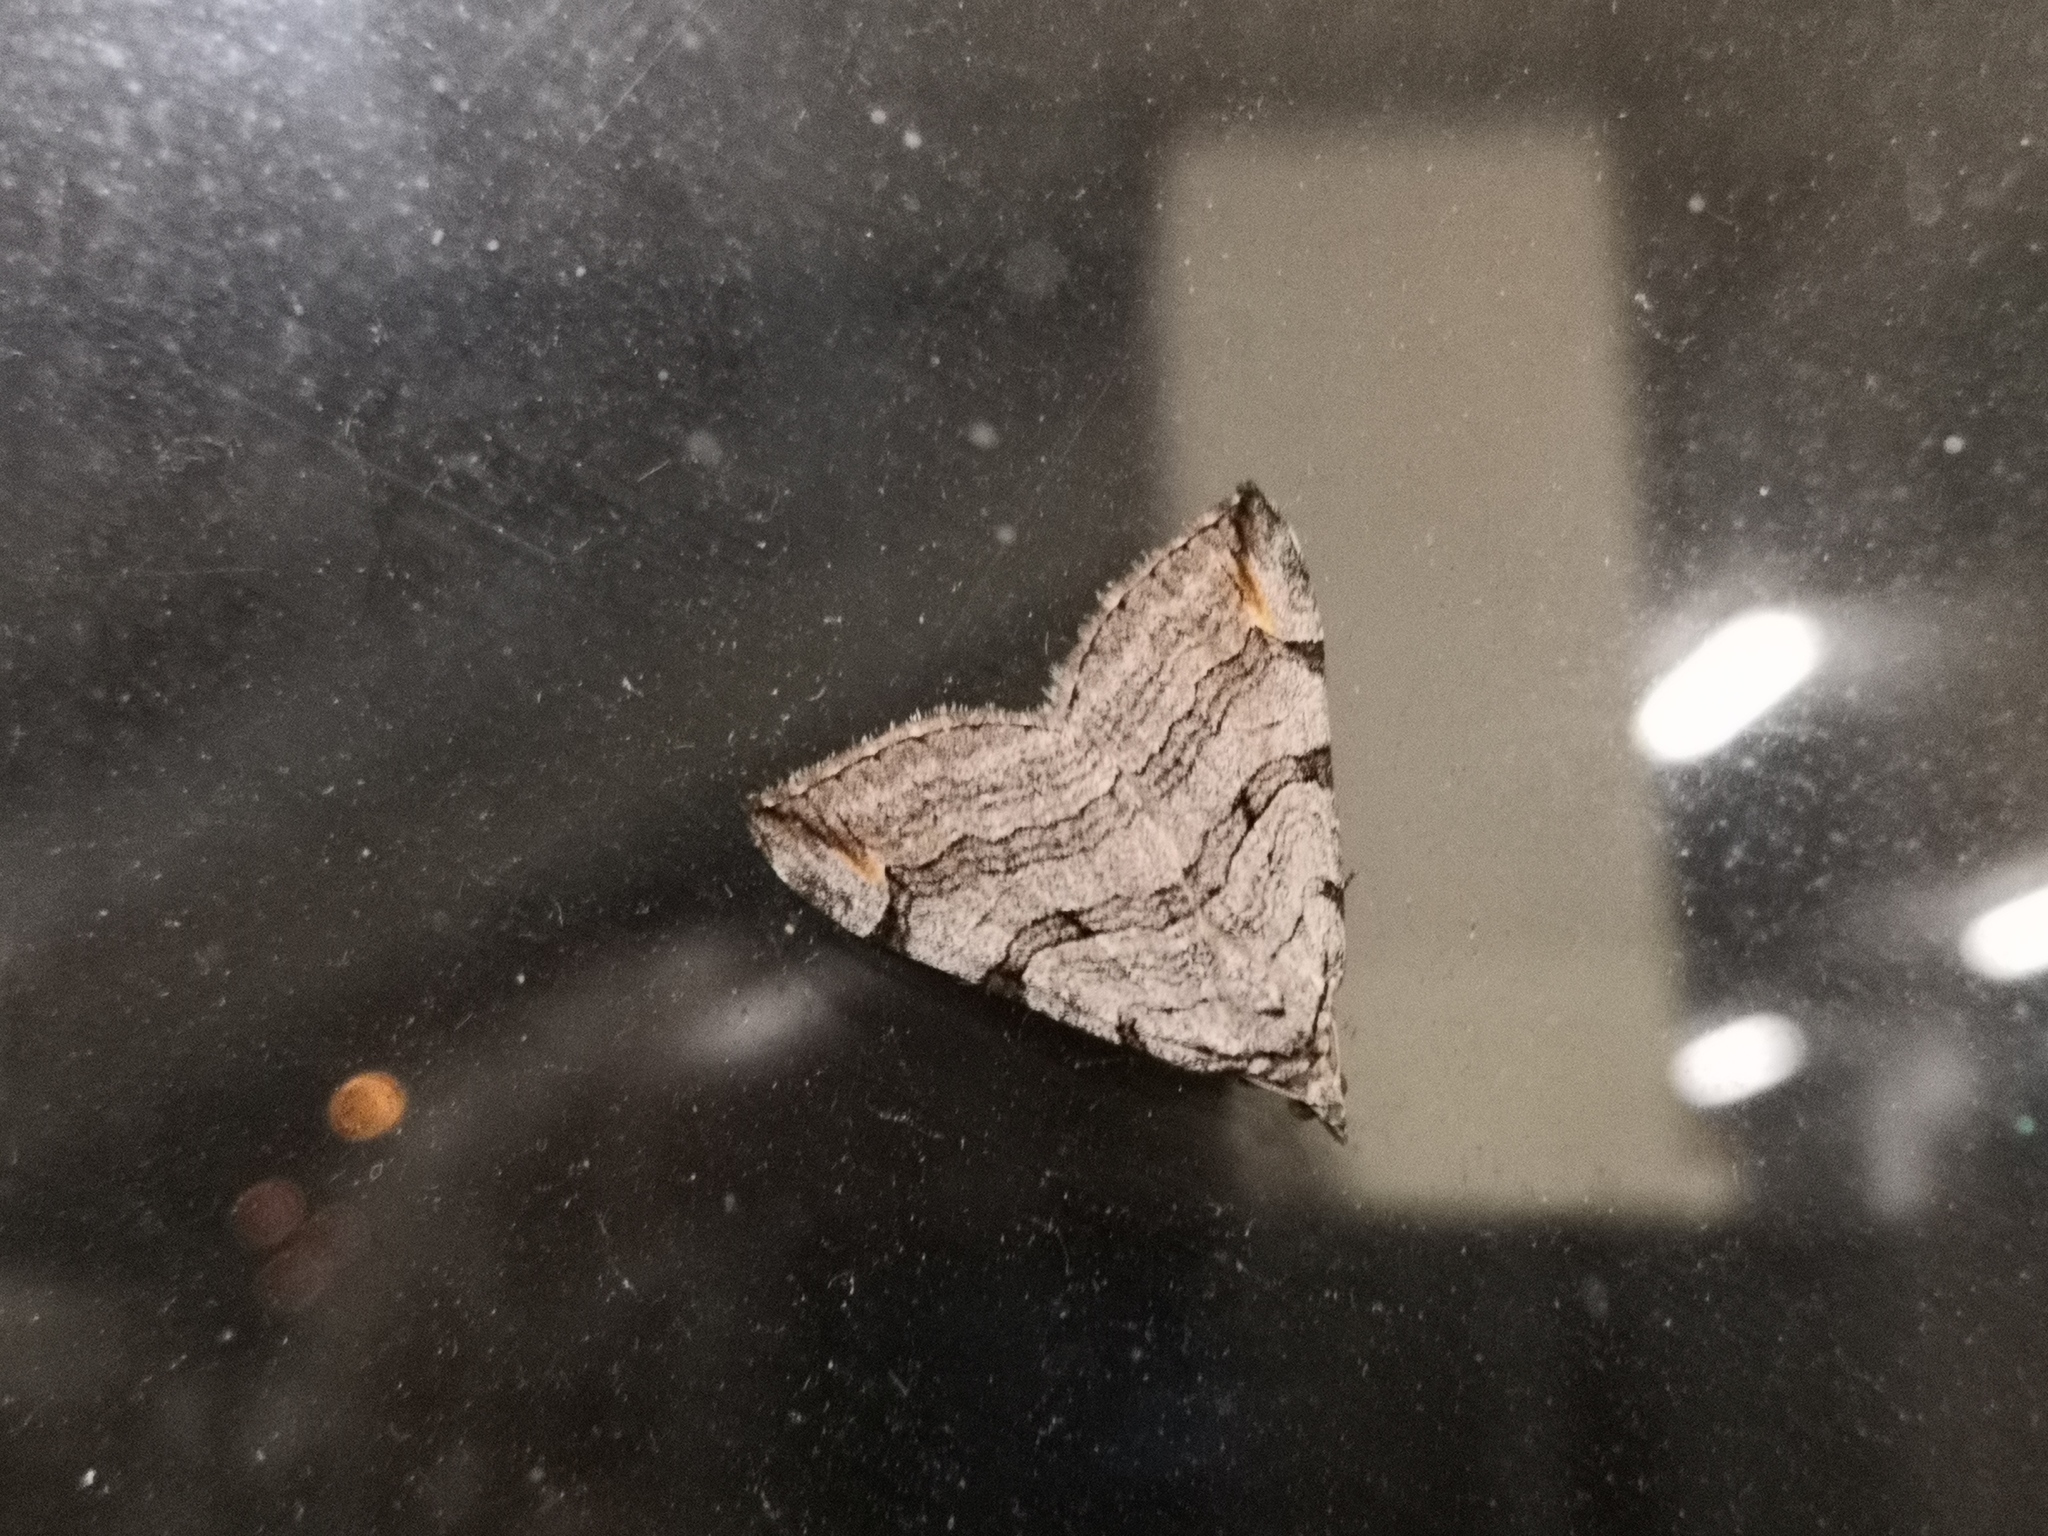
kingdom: Animalia
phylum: Arthropoda
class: Insecta
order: Lepidoptera
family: Geometridae
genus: Aplocera
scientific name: Aplocera plagiata
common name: Treble-bar
